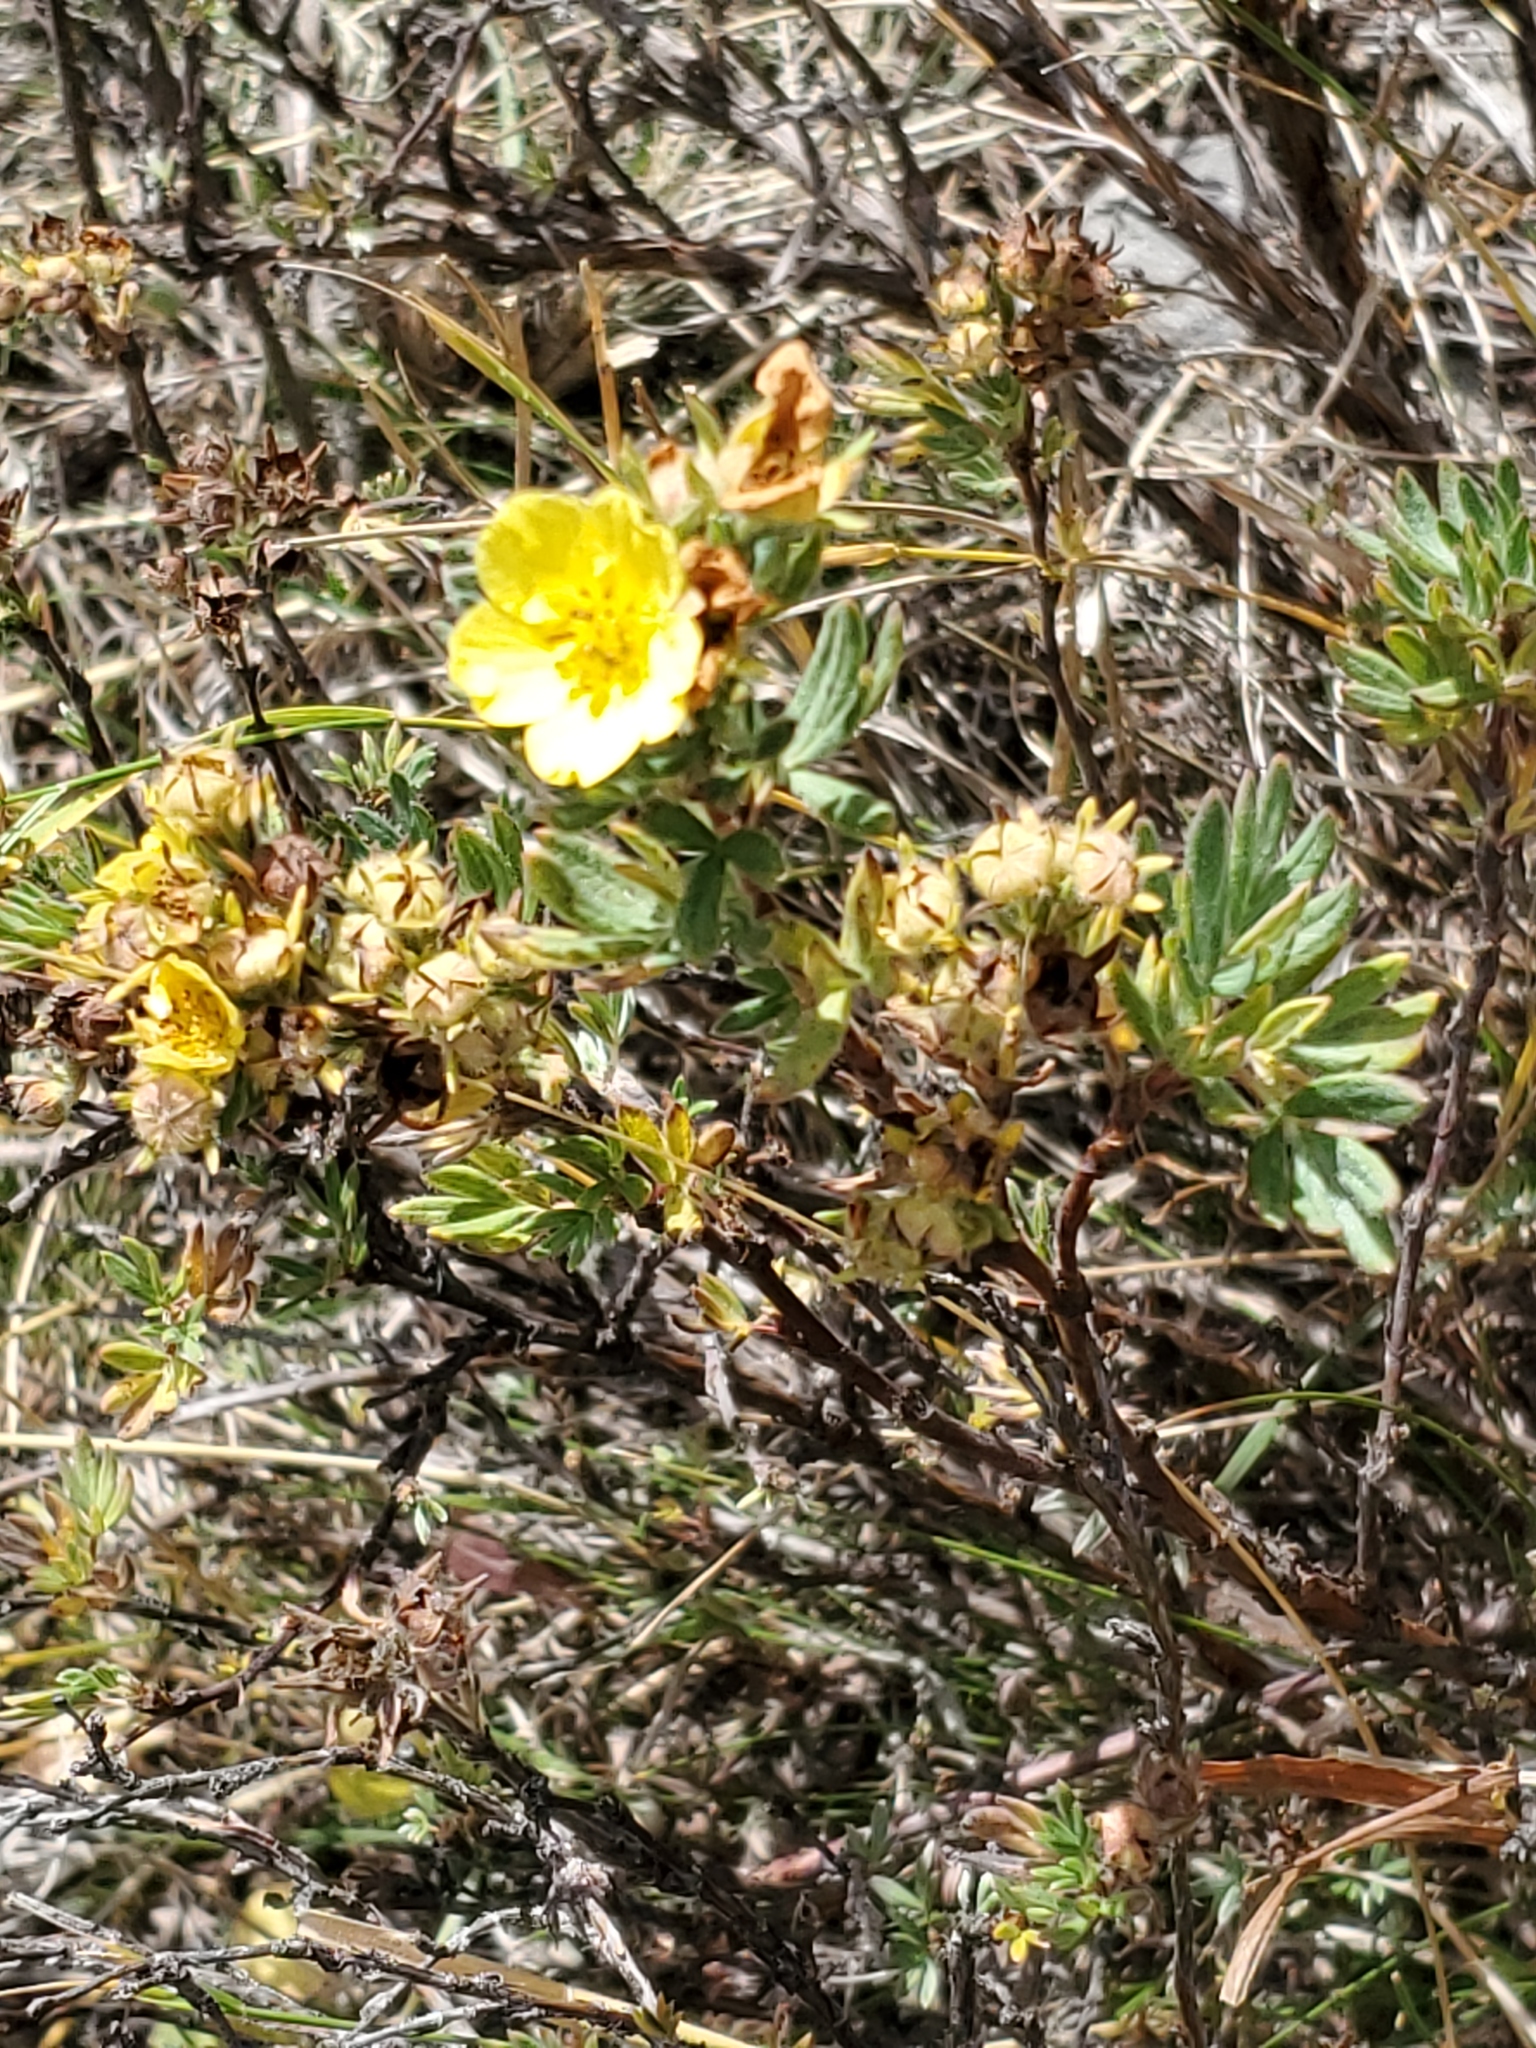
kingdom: Plantae
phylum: Tracheophyta
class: Magnoliopsida
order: Rosales
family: Rosaceae
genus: Dasiphora
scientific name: Dasiphora fruticosa
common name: Shrubby cinquefoil
